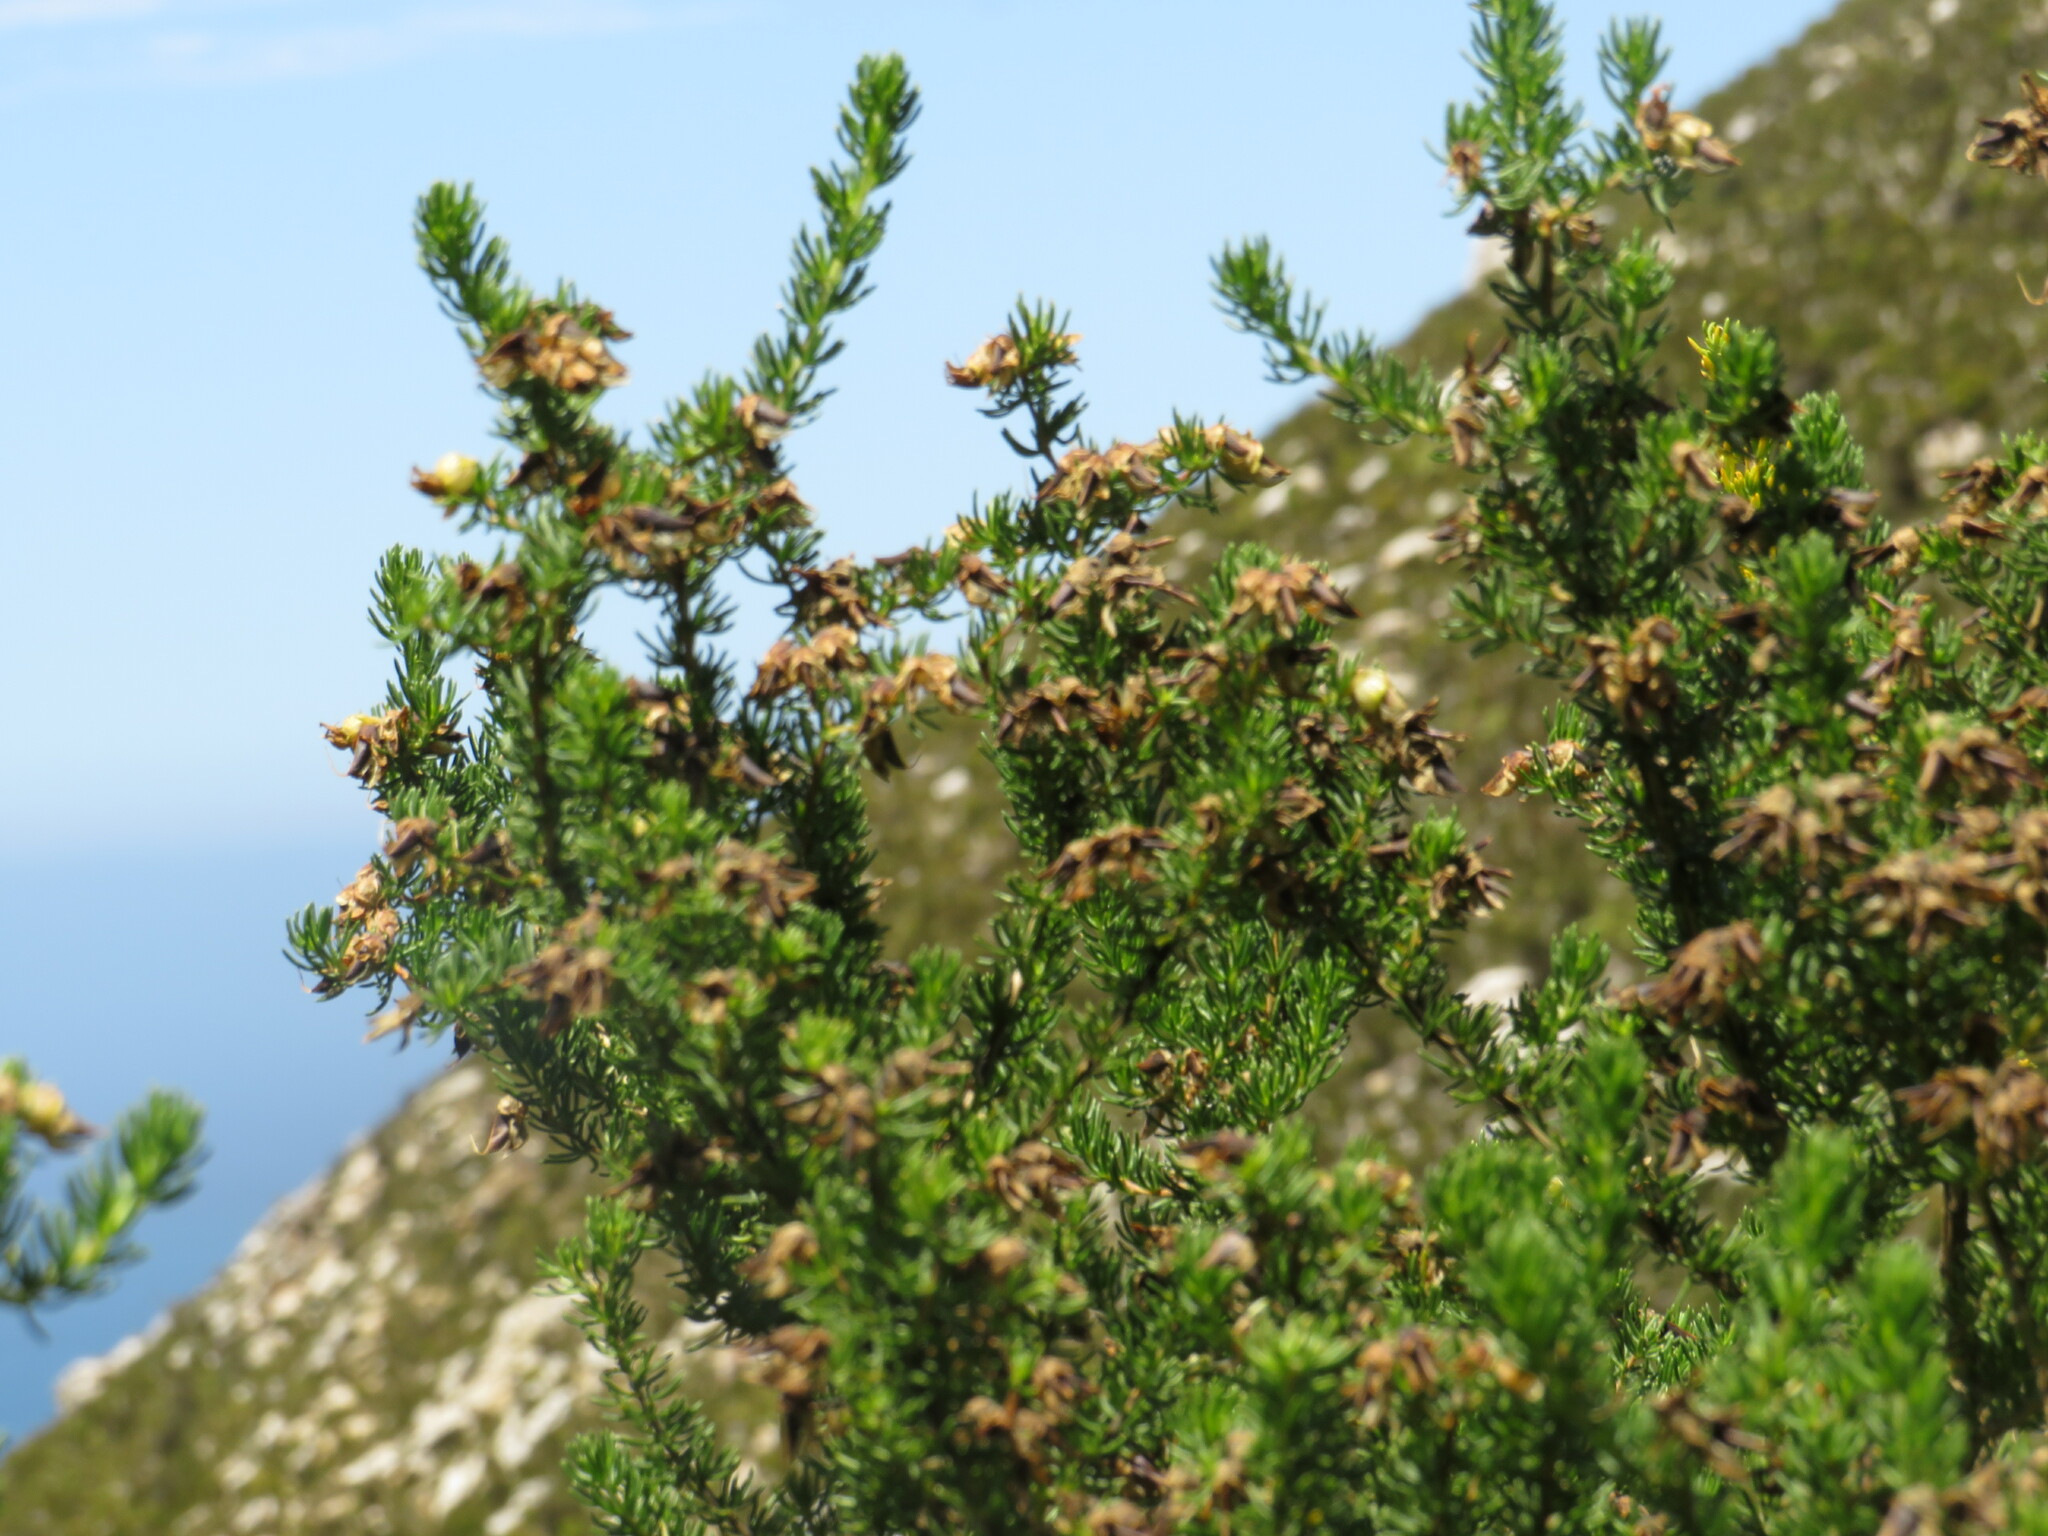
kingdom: Plantae
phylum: Tracheophyta
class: Magnoliopsida
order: Fabales
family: Fabaceae
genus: Aspalathus
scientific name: Aspalathus excelsa
